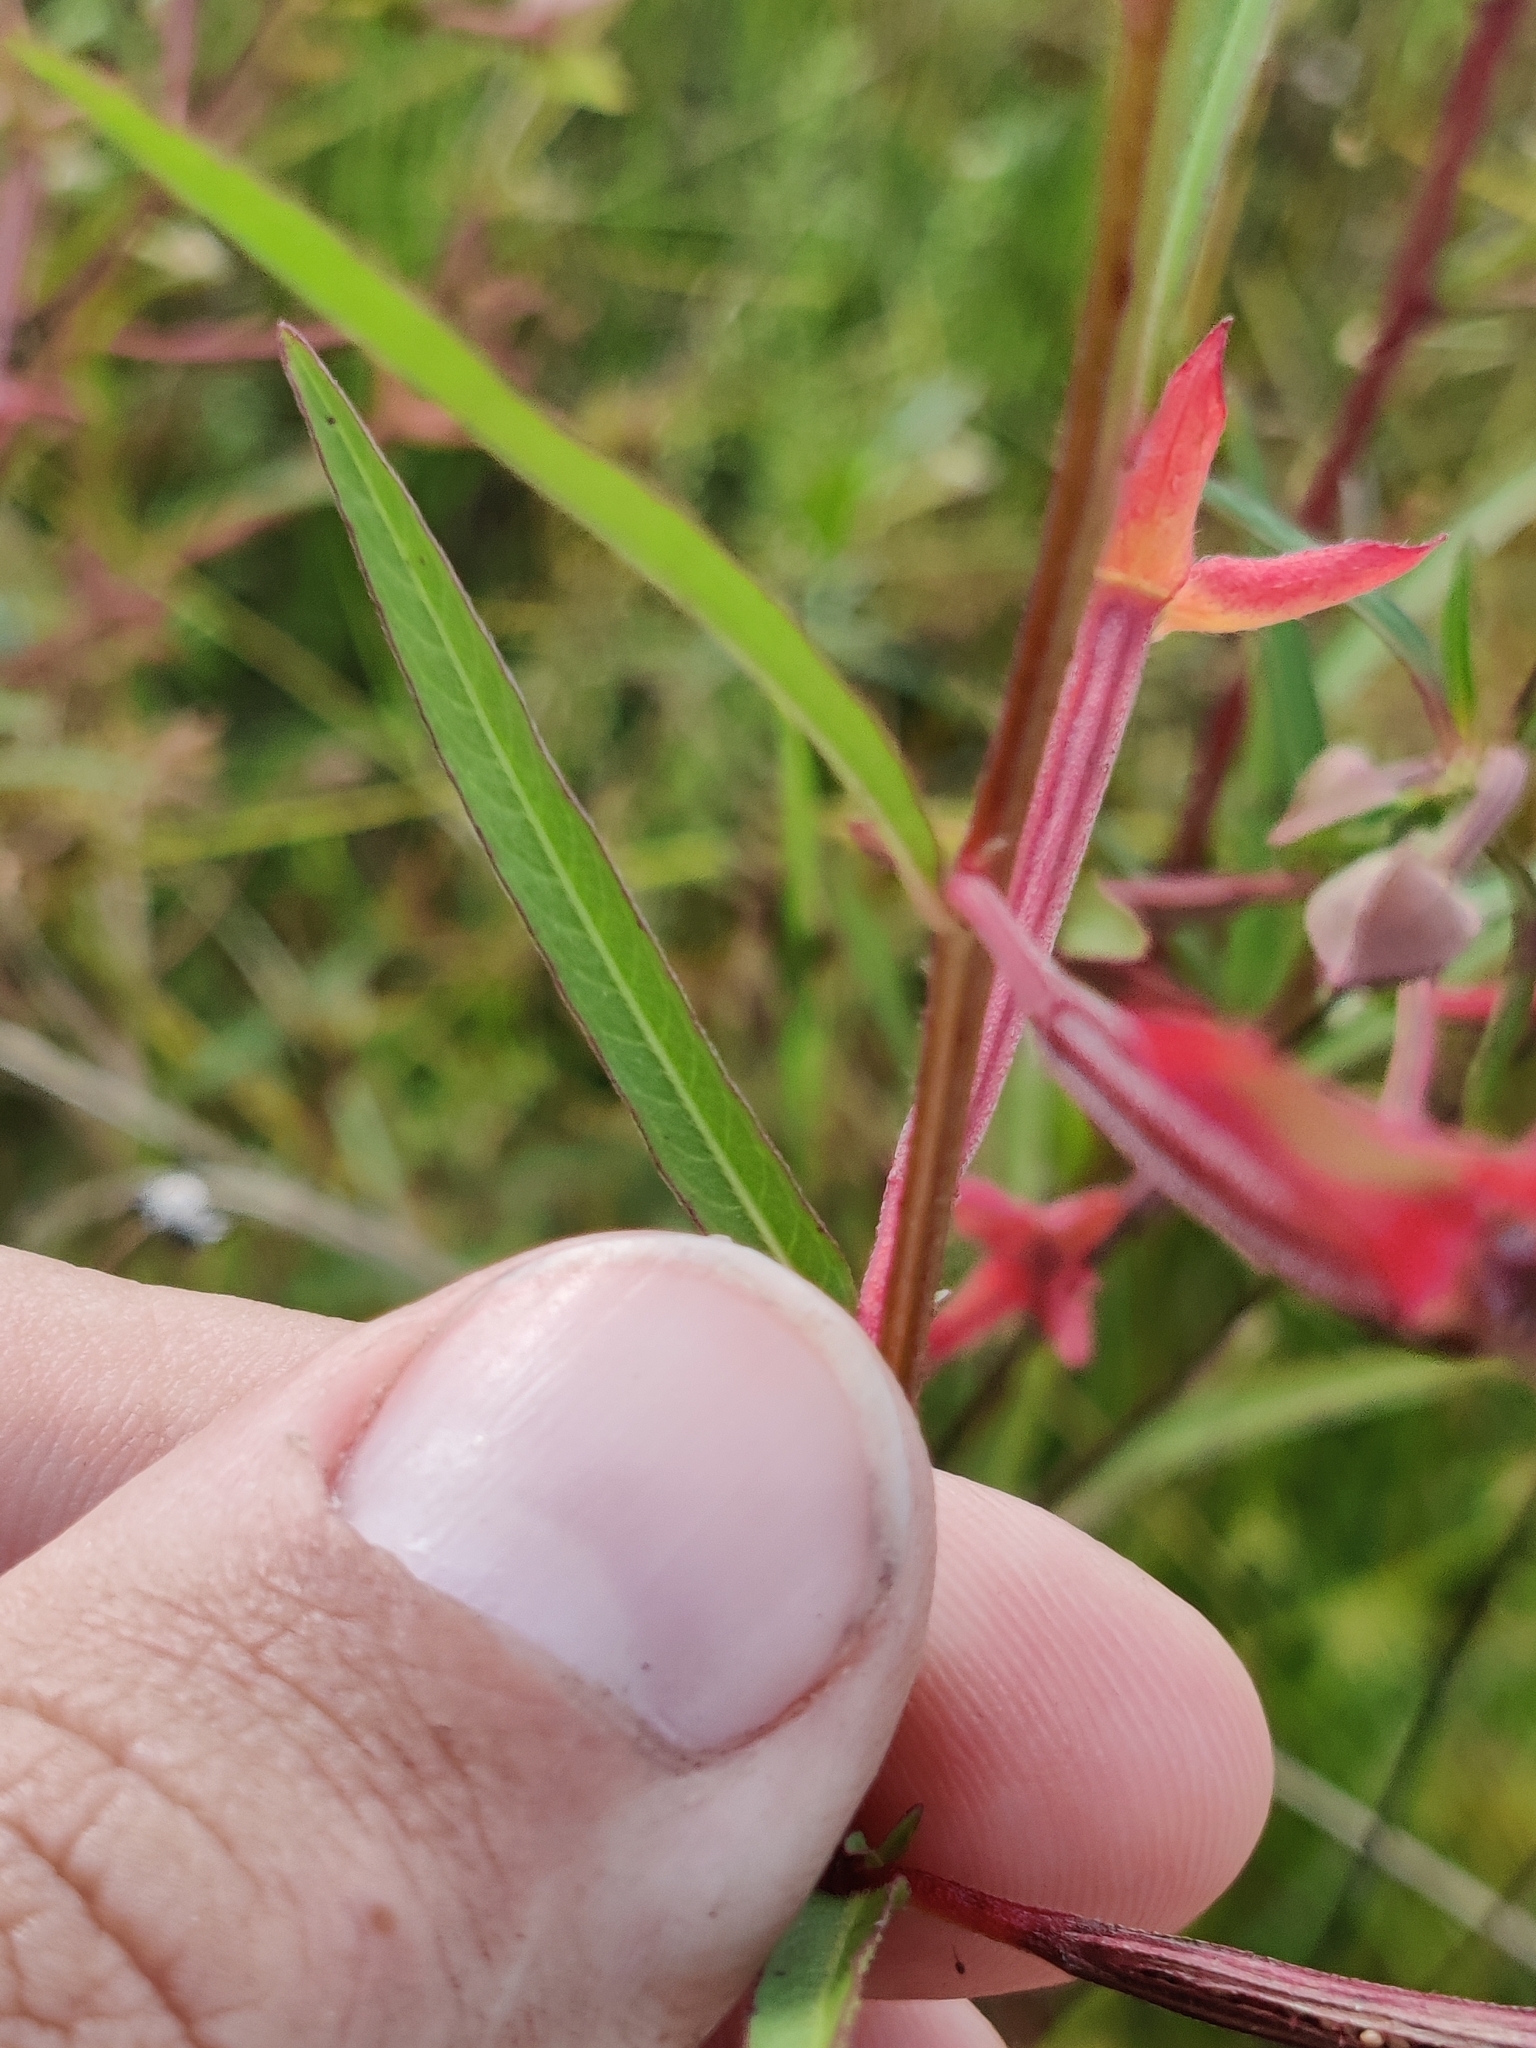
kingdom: Plantae
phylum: Tracheophyta
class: Magnoliopsida
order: Myrtales
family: Onagraceae
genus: Ludwigia
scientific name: Ludwigia octovalvis
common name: Water-primrose
